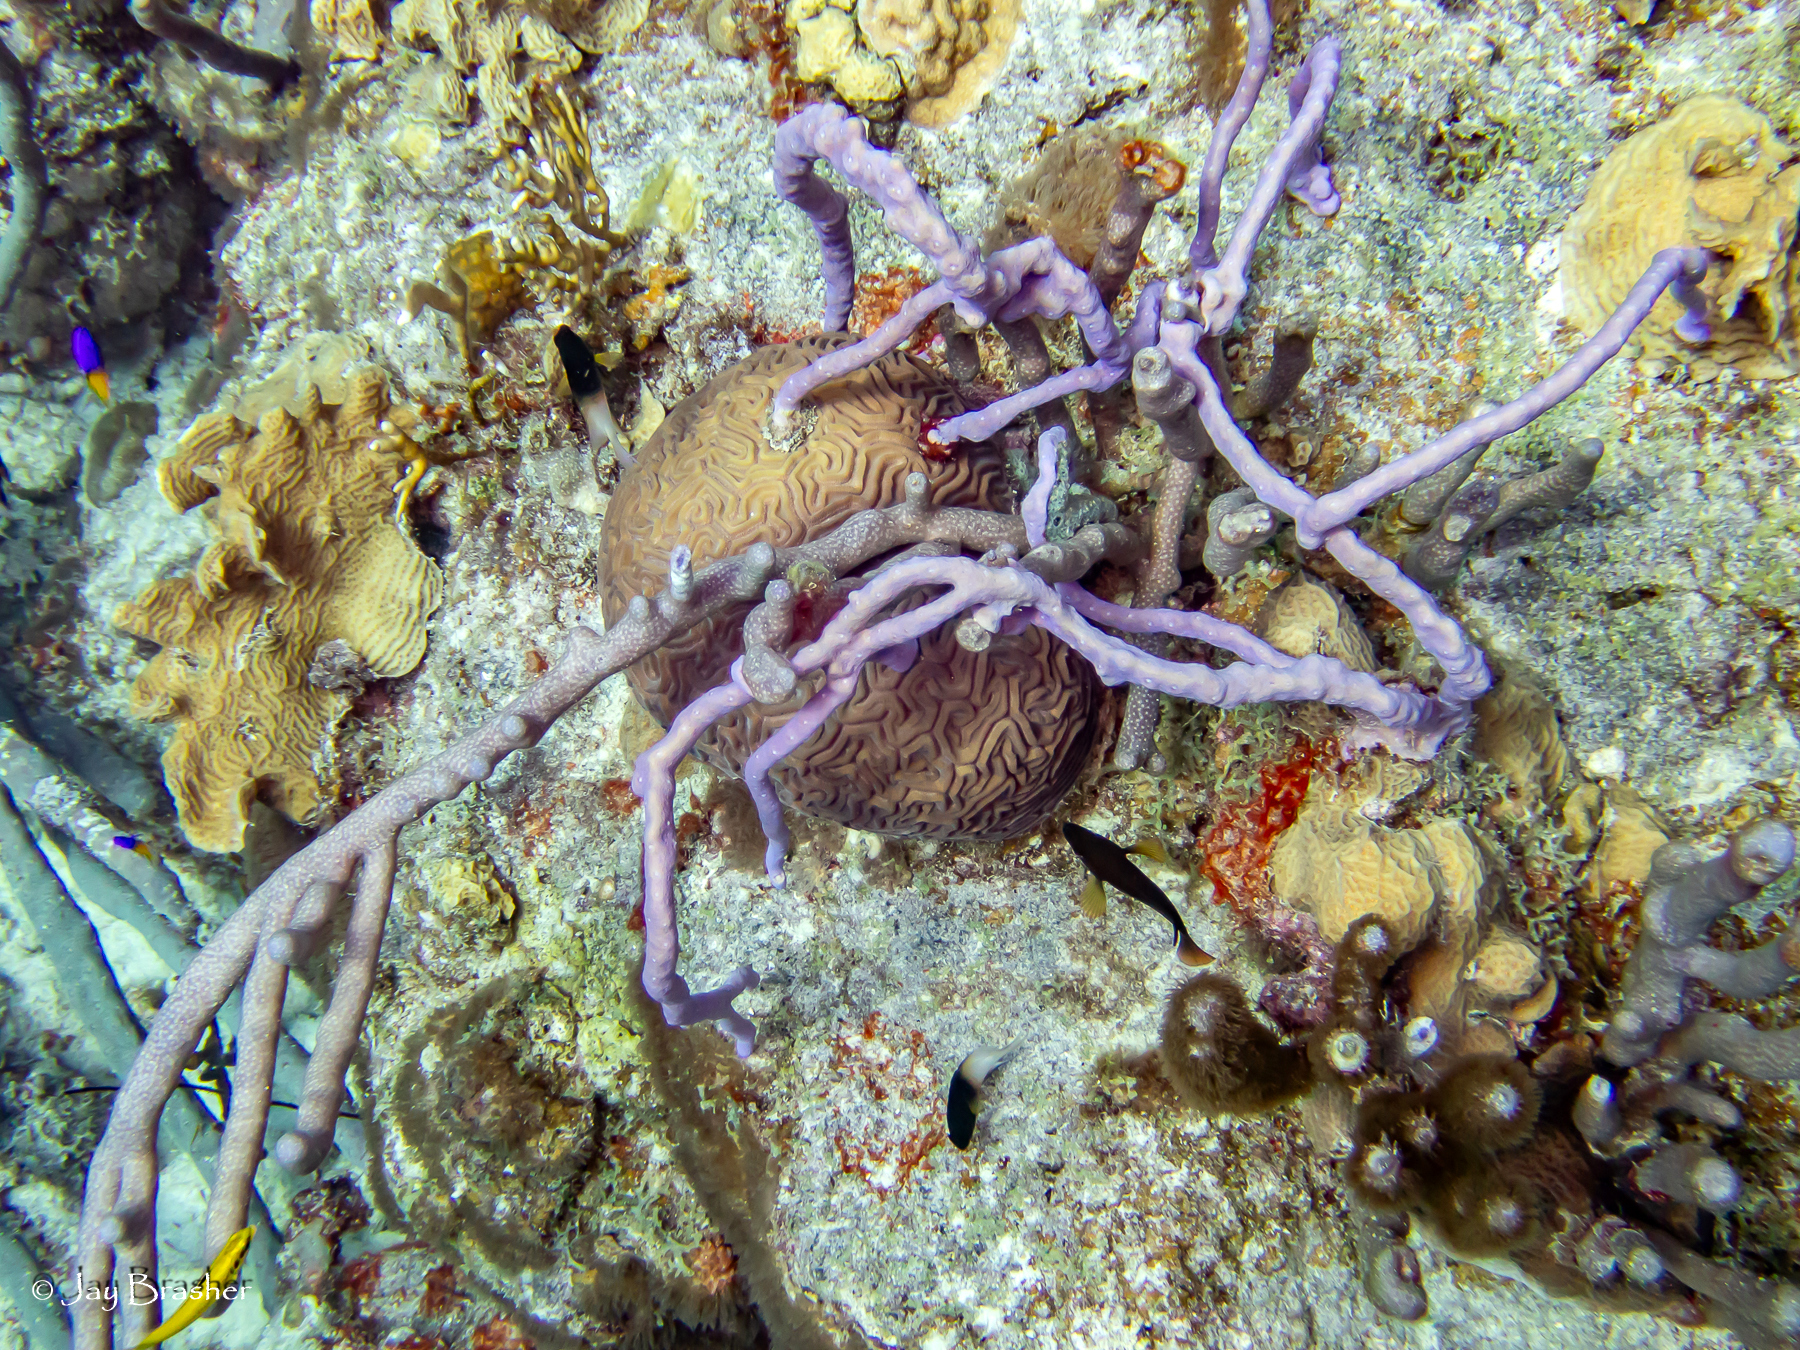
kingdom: Animalia
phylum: Porifera
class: Demospongiae
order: Verongiida
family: Aplysinidae
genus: Aplysina
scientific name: Aplysina cauliformis
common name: Branching candle sponge
